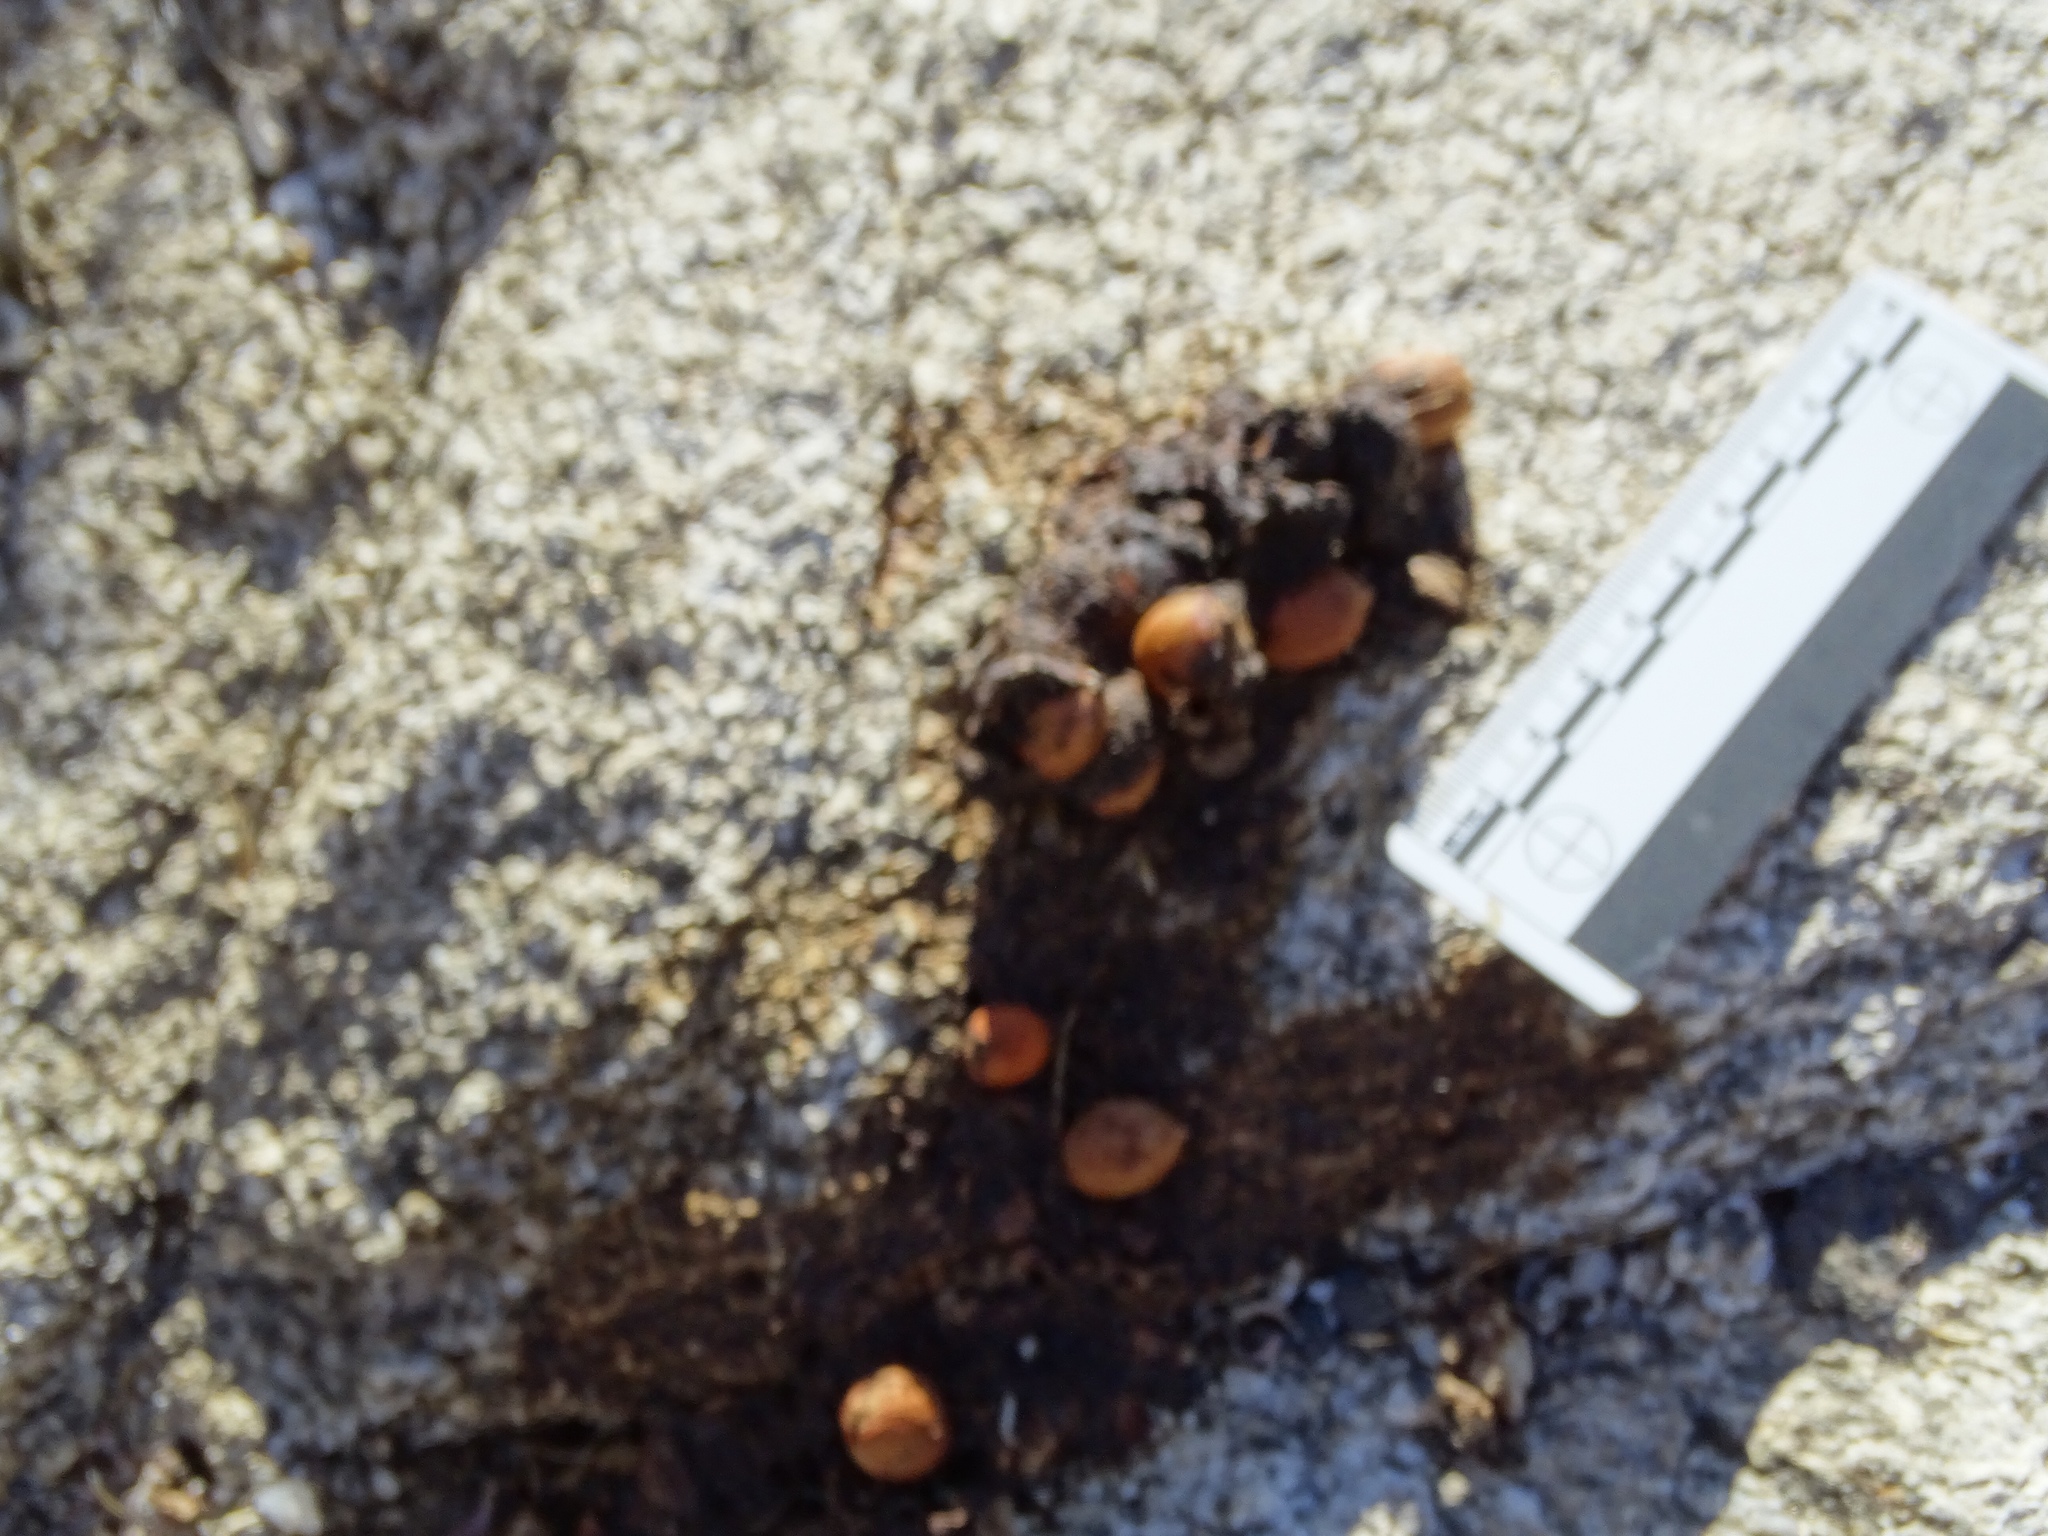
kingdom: Animalia
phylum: Chordata
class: Mammalia
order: Carnivora
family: Canidae
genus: Canis
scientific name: Canis latrans
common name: Coyote
